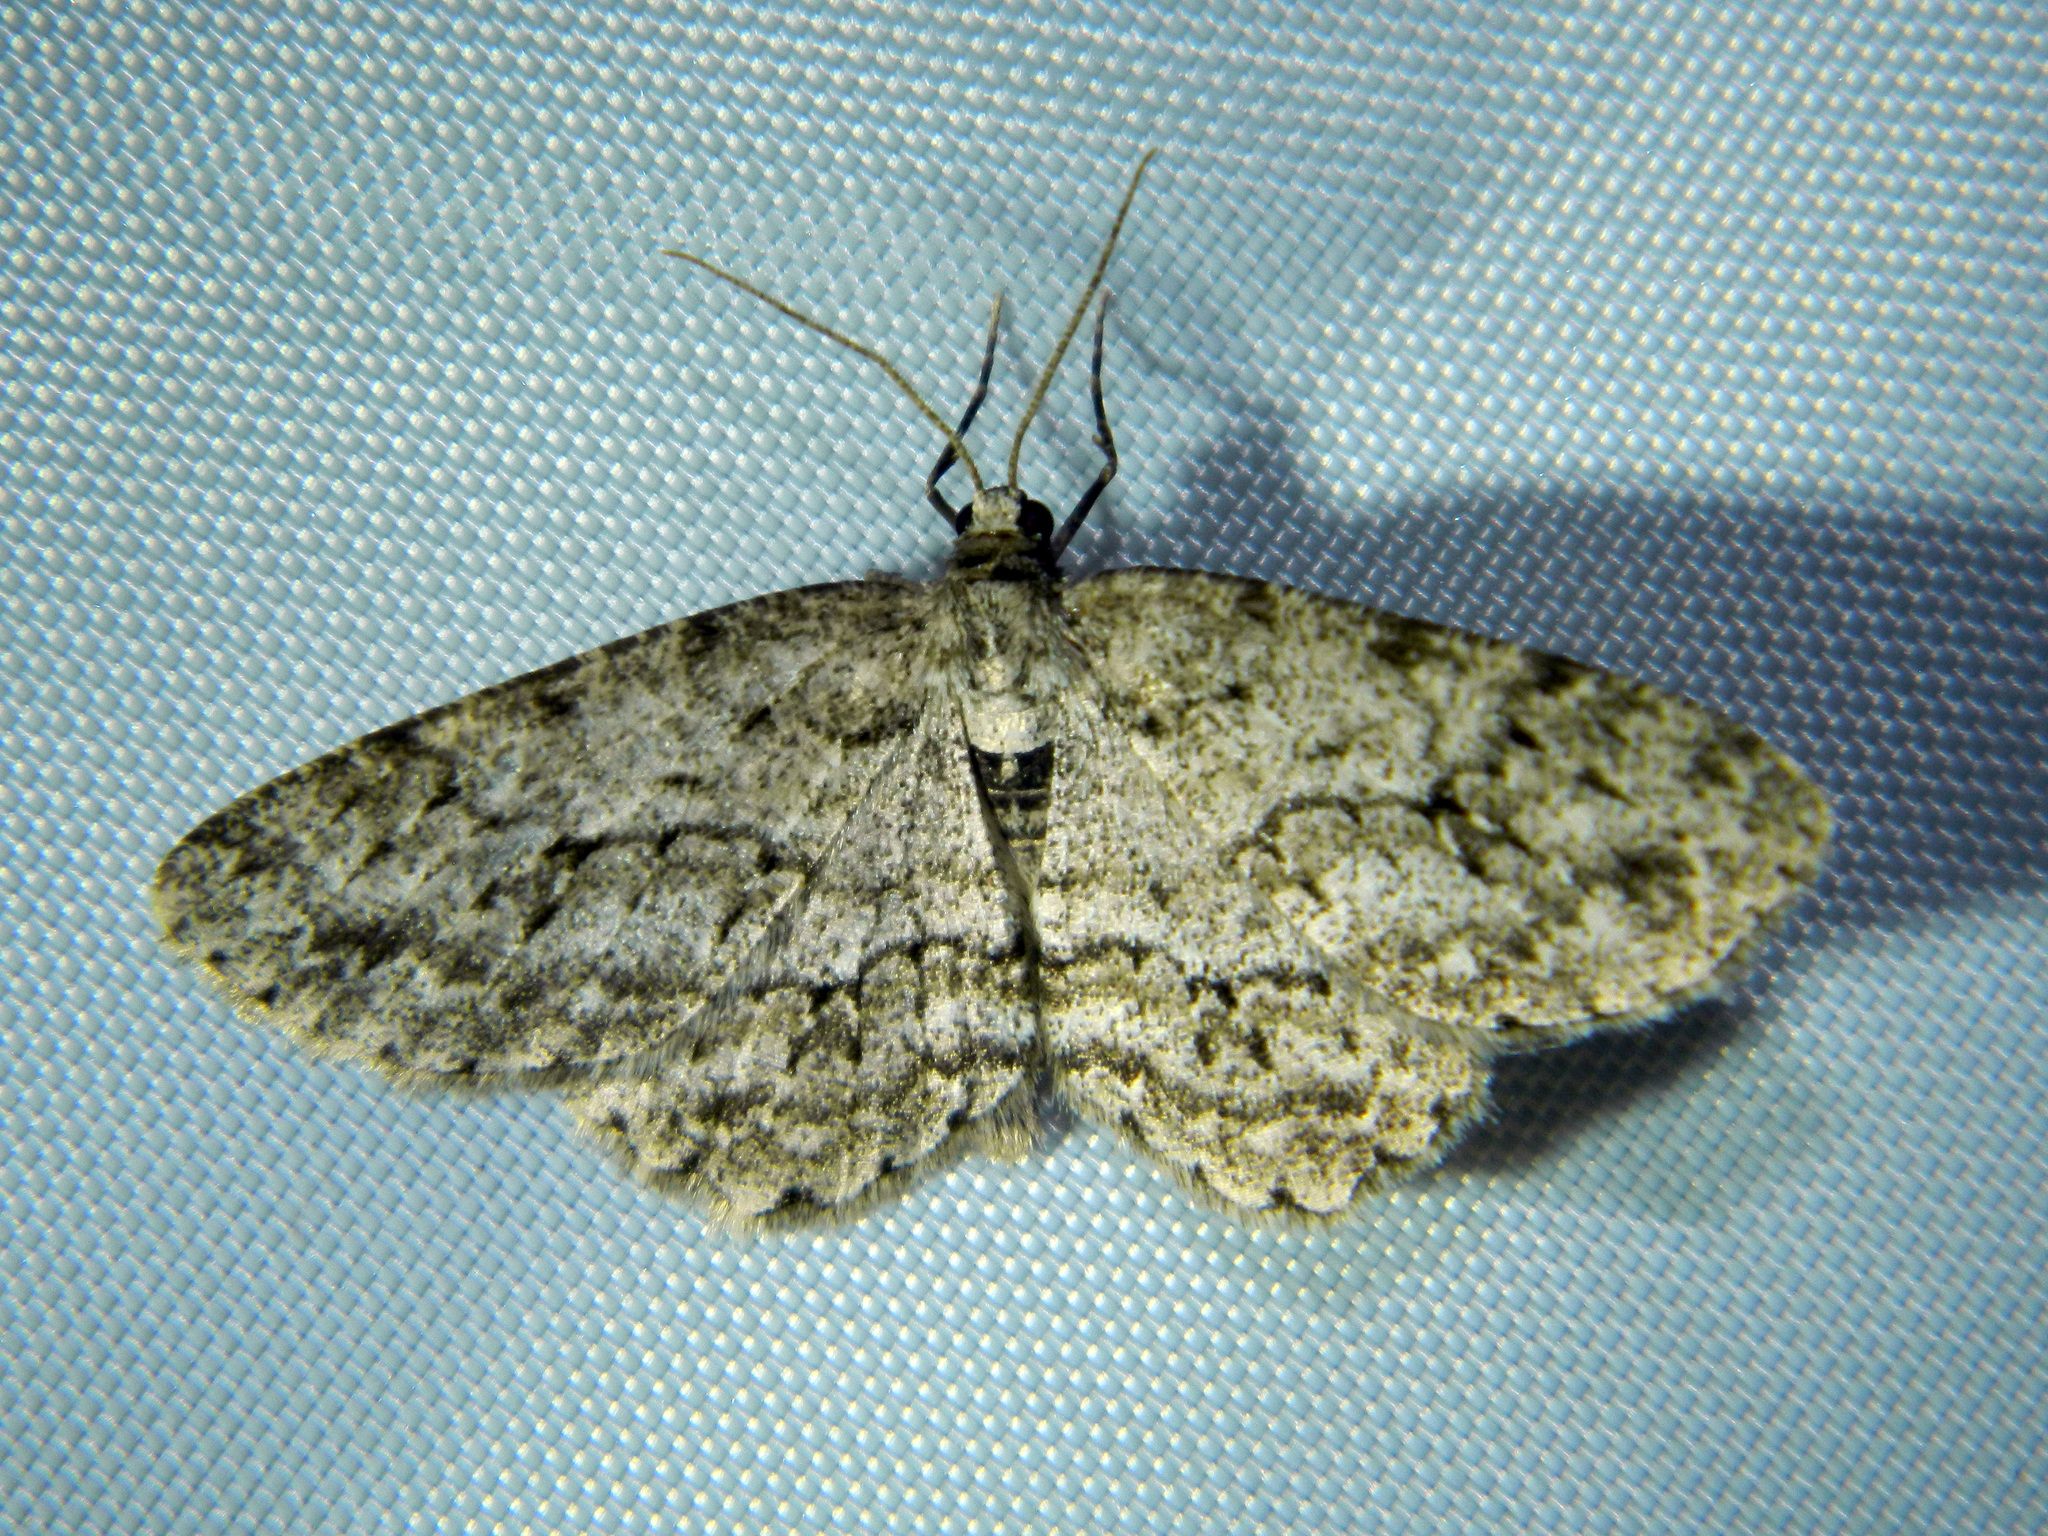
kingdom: Animalia
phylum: Arthropoda
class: Insecta
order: Lepidoptera
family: Geometridae
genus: Ectropis
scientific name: Ectropis crepuscularia
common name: Engrailed
